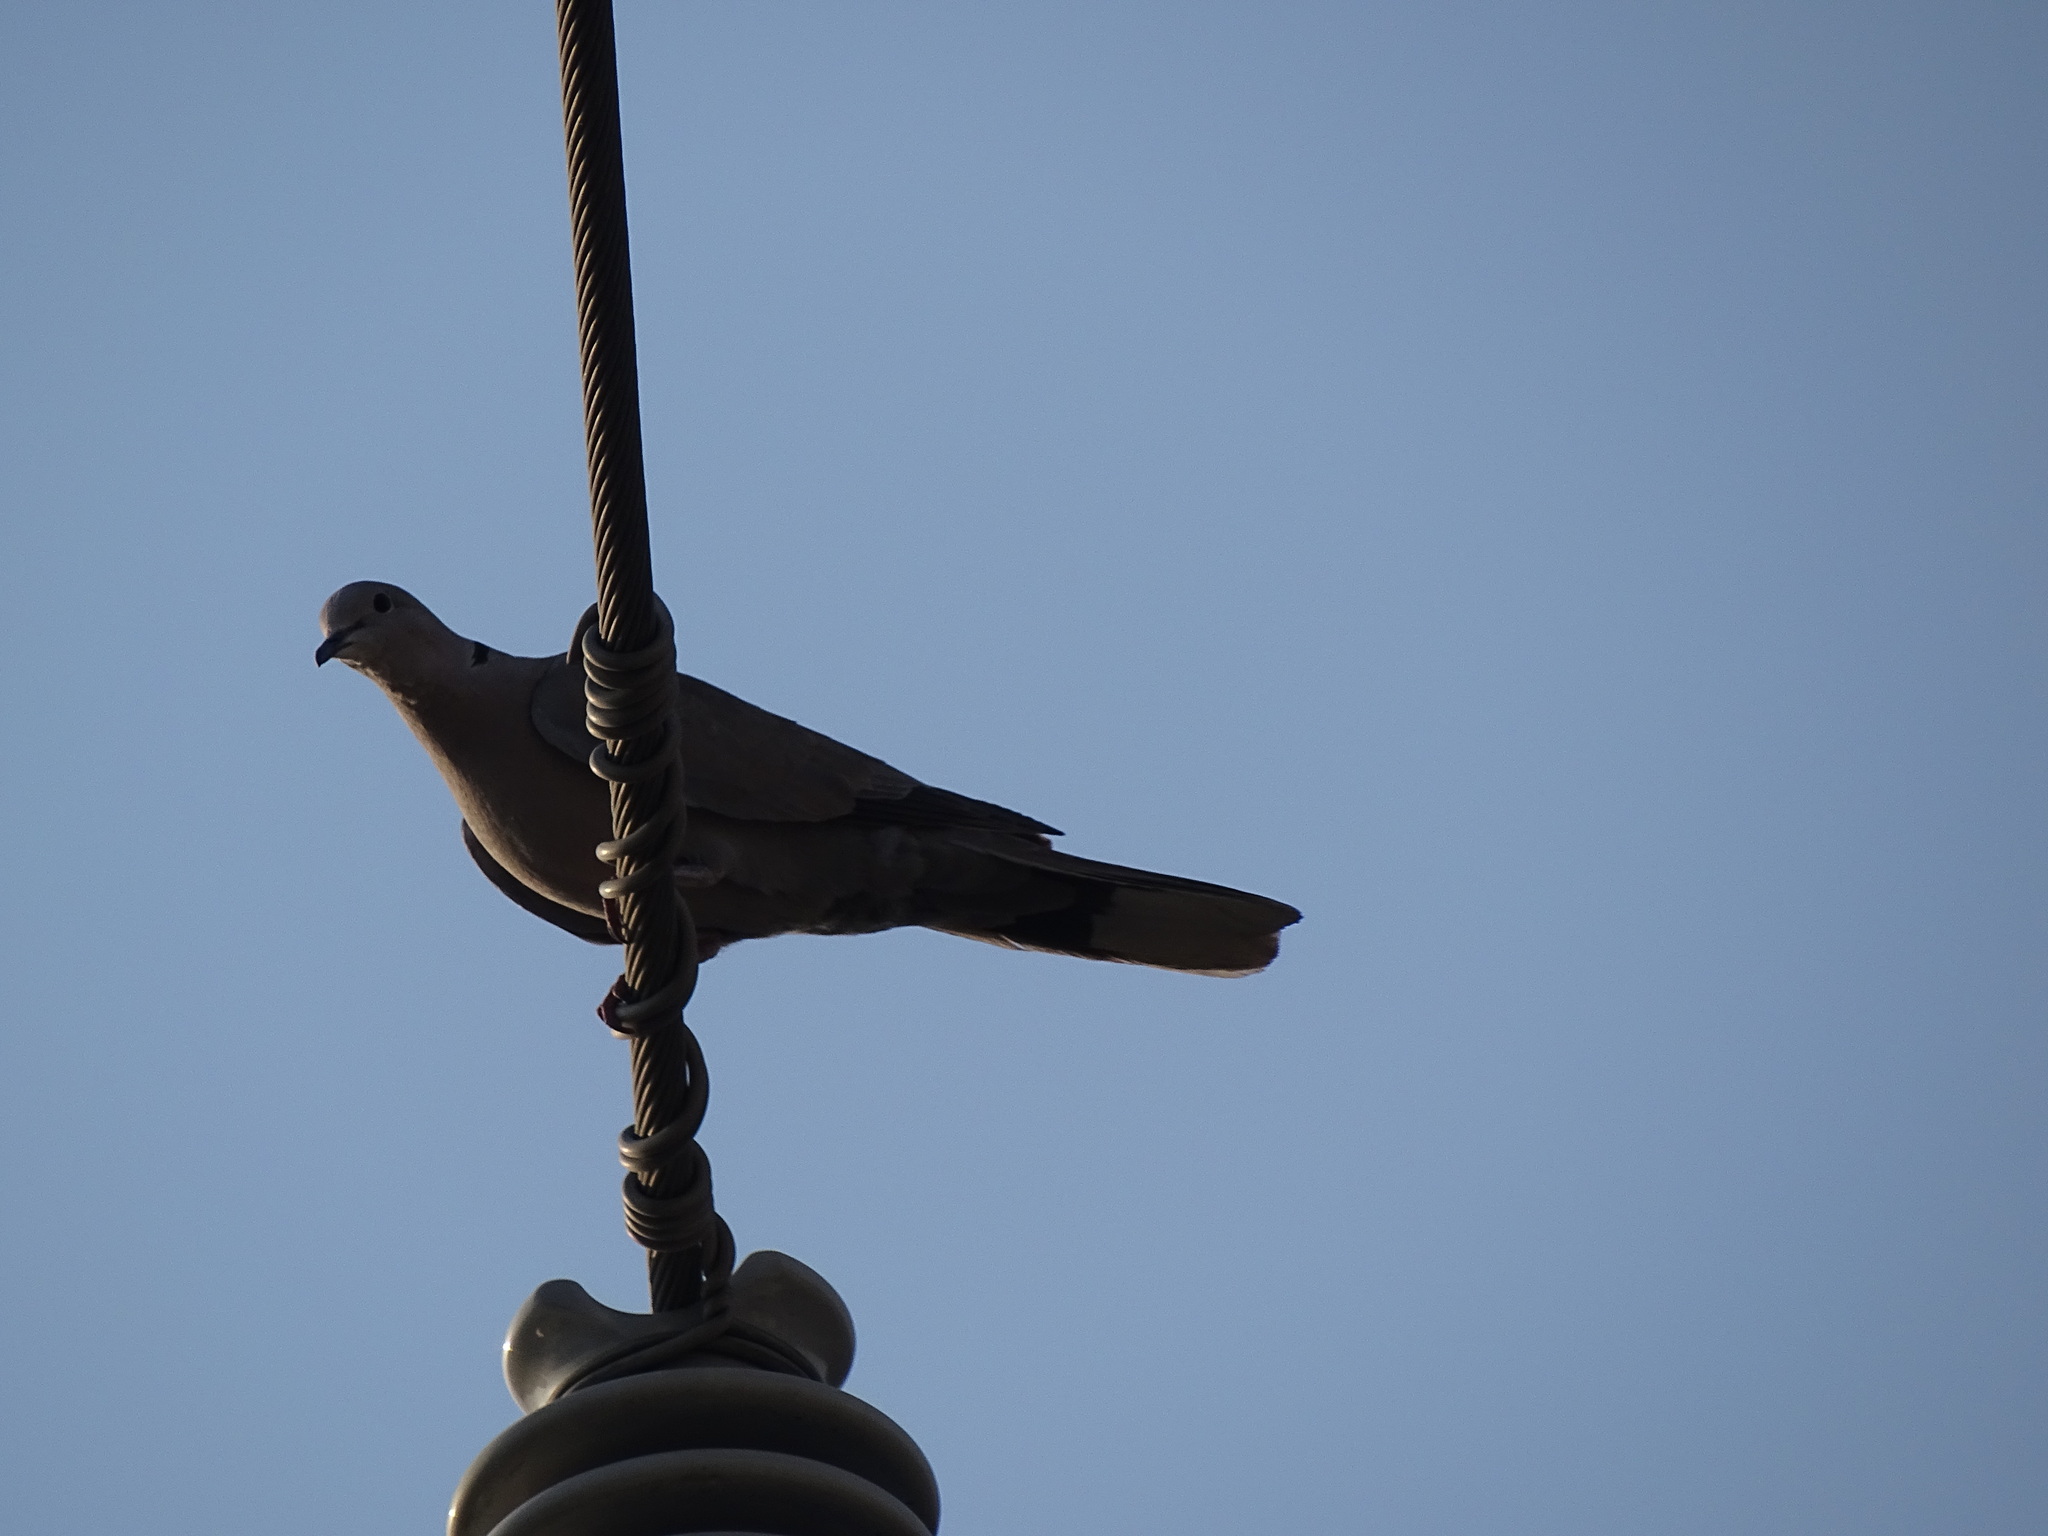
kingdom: Animalia
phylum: Chordata
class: Aves
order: Columbiformes
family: Columbidae
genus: Streptopelia
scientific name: Streptopelia decaocto
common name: Eurasian collared dove
